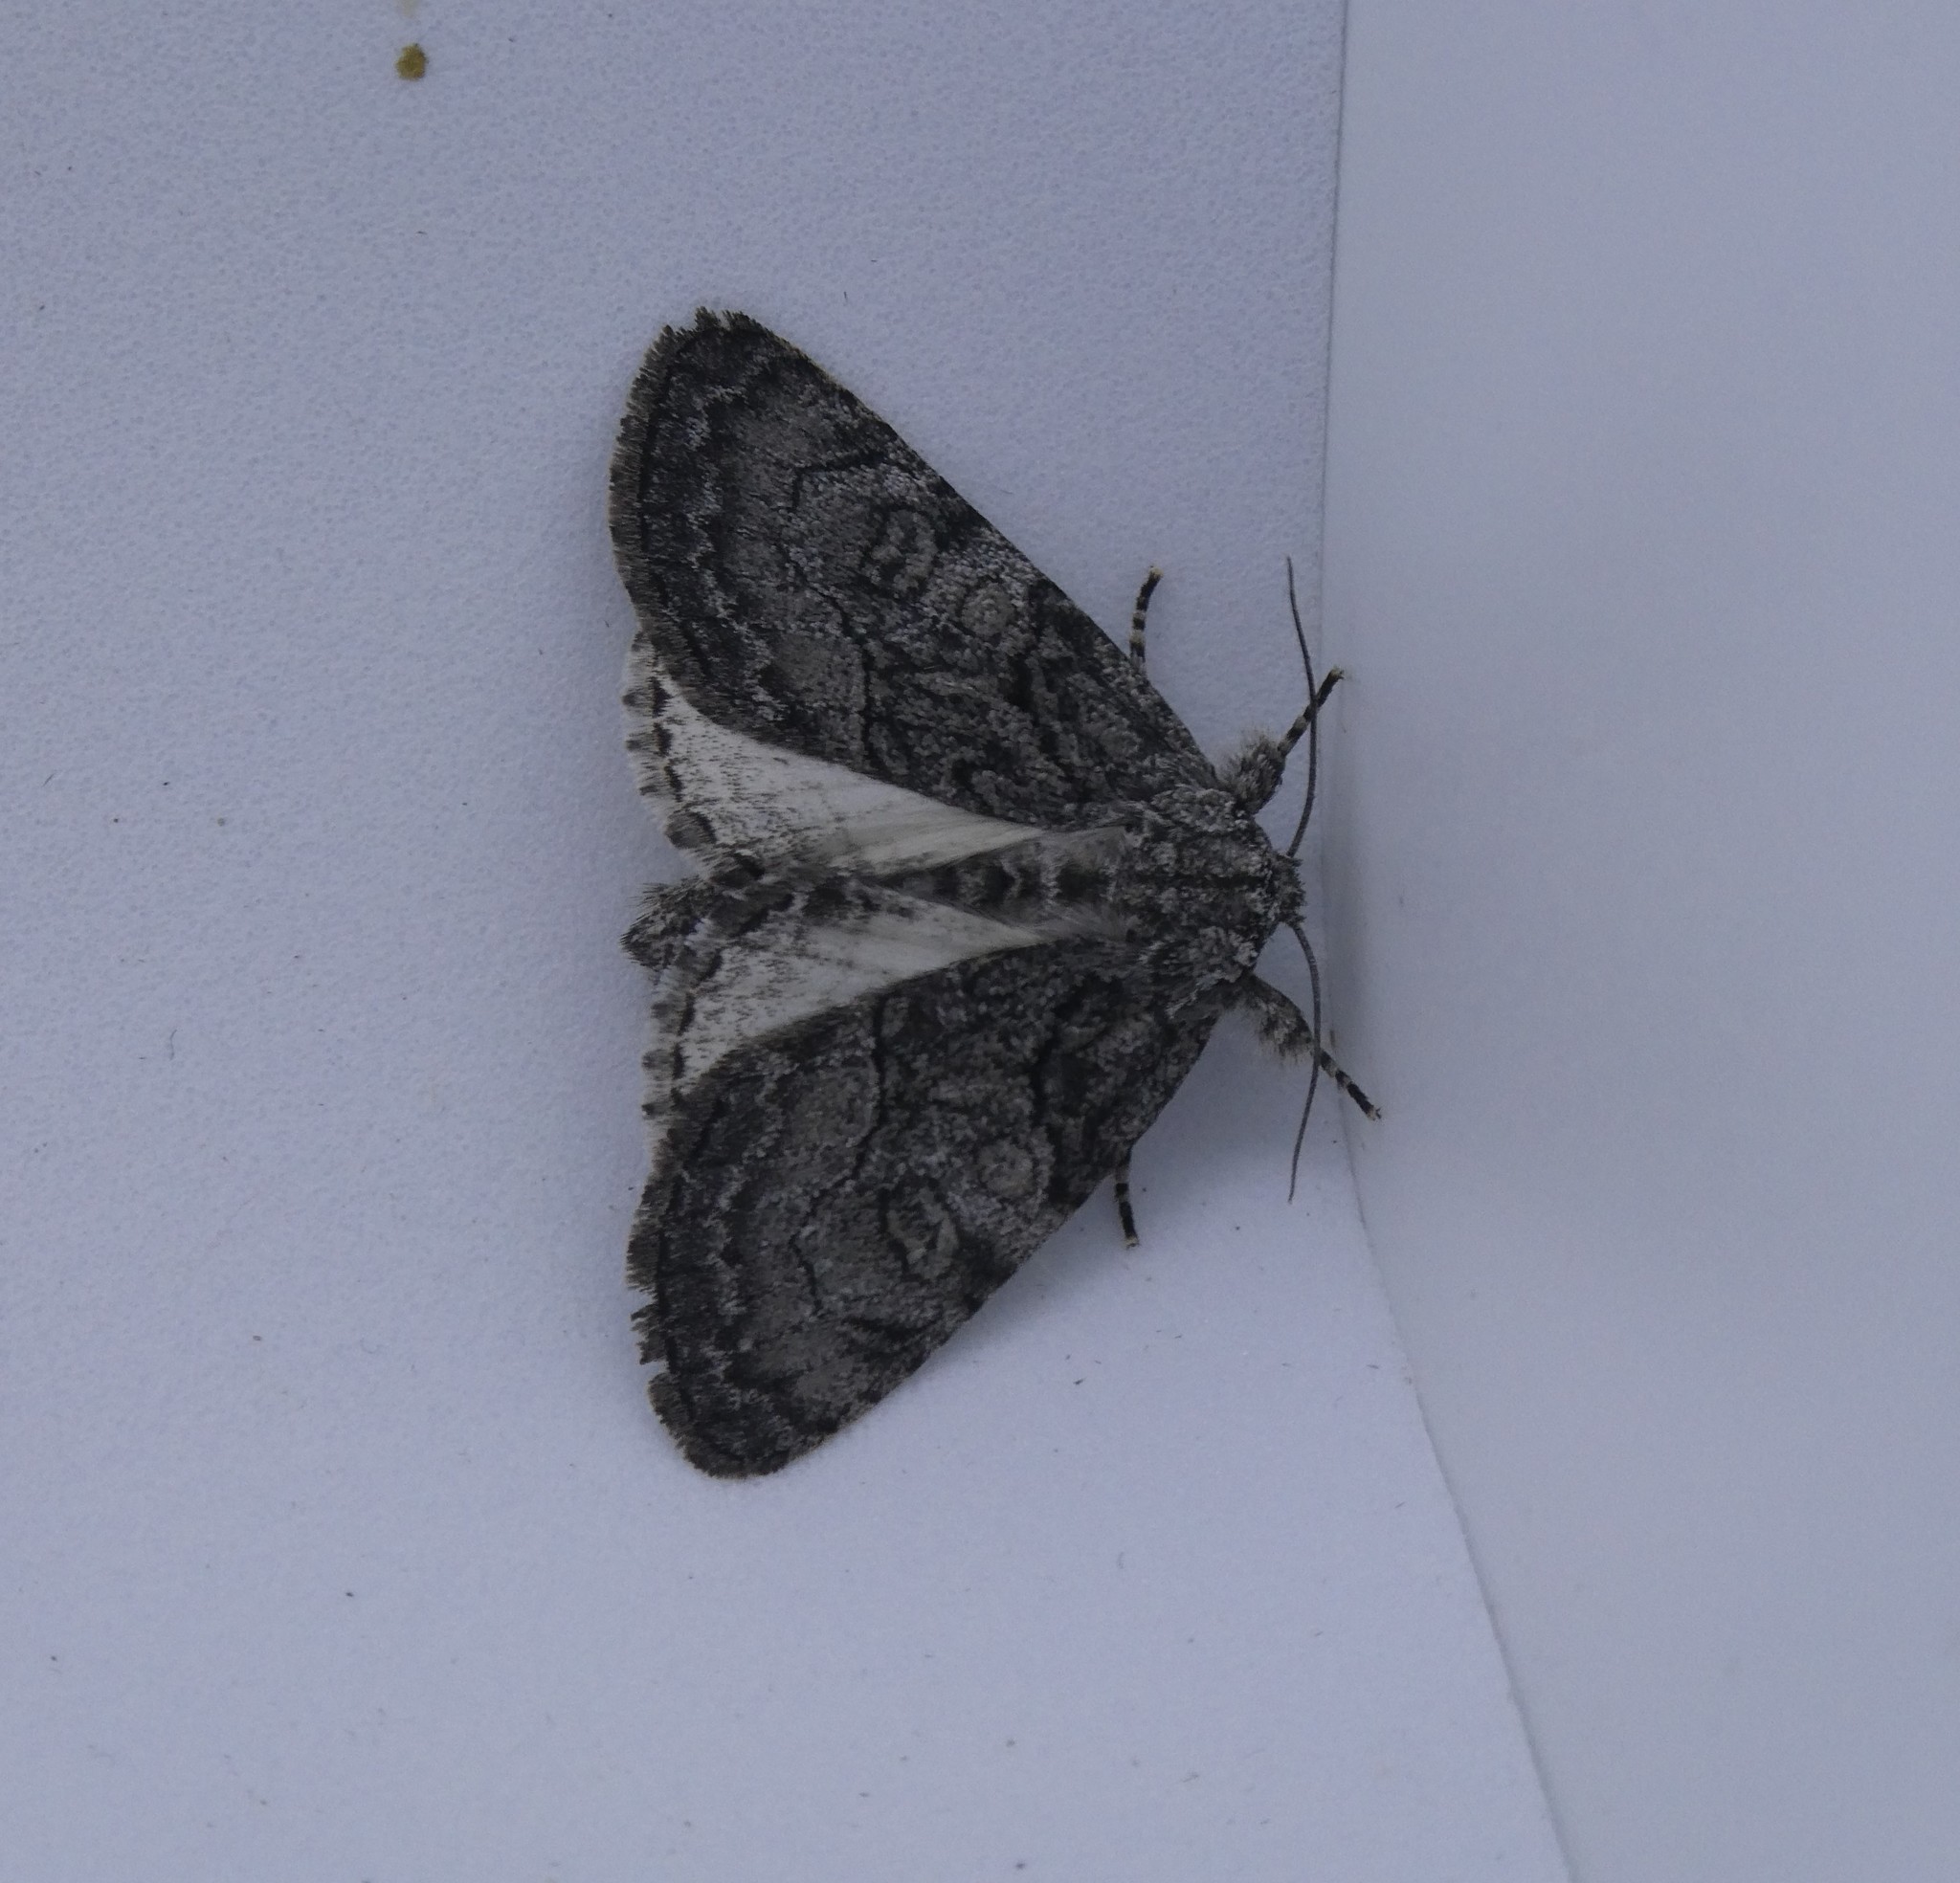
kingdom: Animalia
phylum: Arthropoda
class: Insecta
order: Lepidoptera
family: Noctuidae
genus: Raphia
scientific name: Raphia frater
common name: Brother
